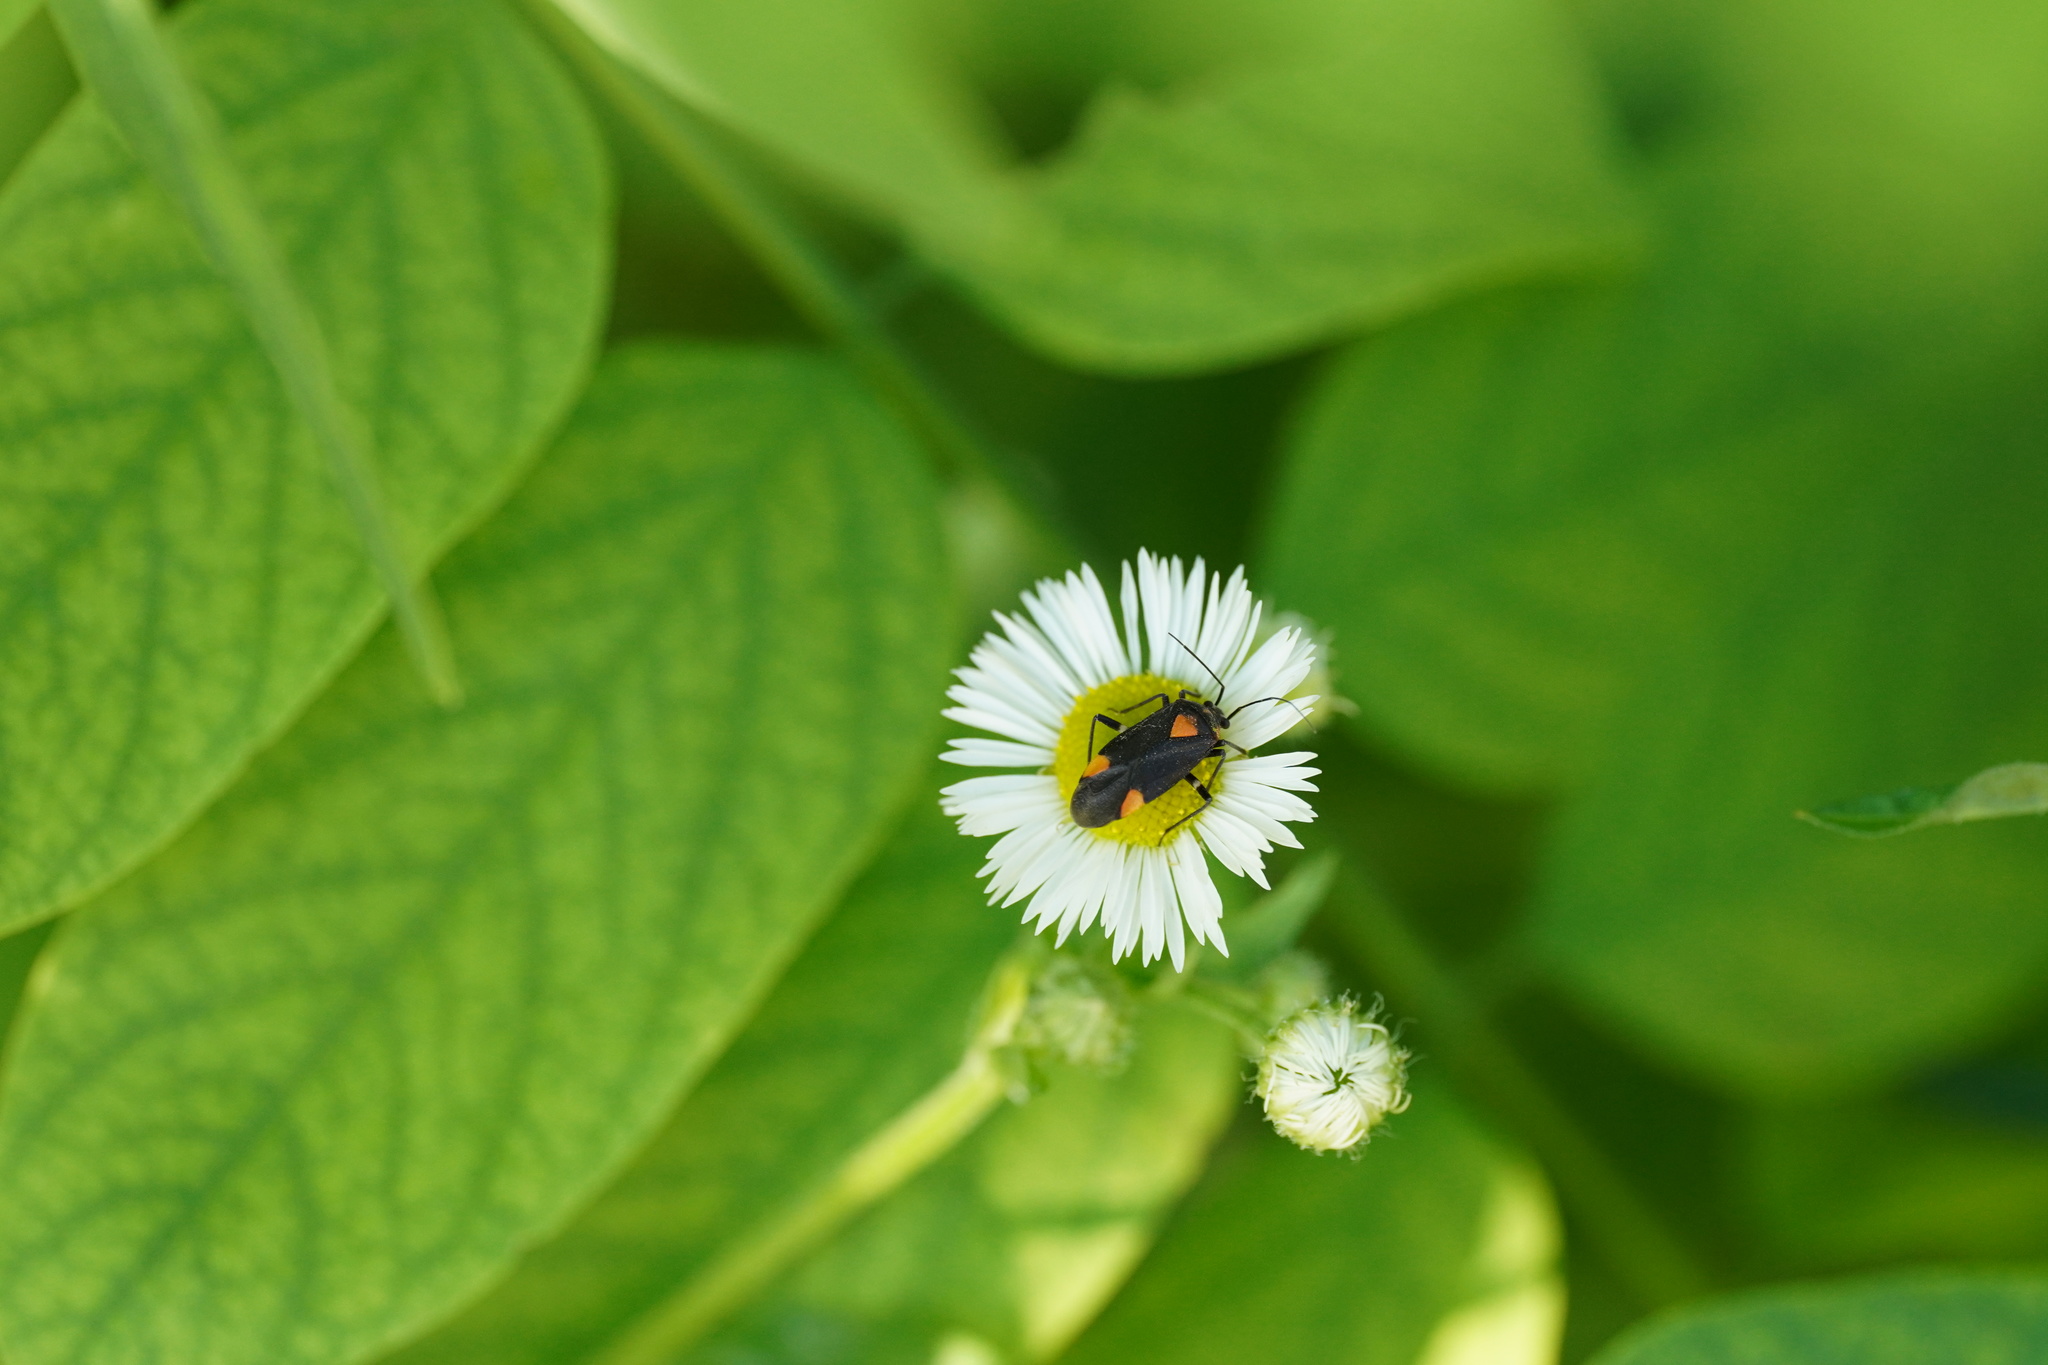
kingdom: Animalia
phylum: Arthropoda
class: Insecta
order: Hemiptera
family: Miridae
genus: Capsodes
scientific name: Capsodes mat
